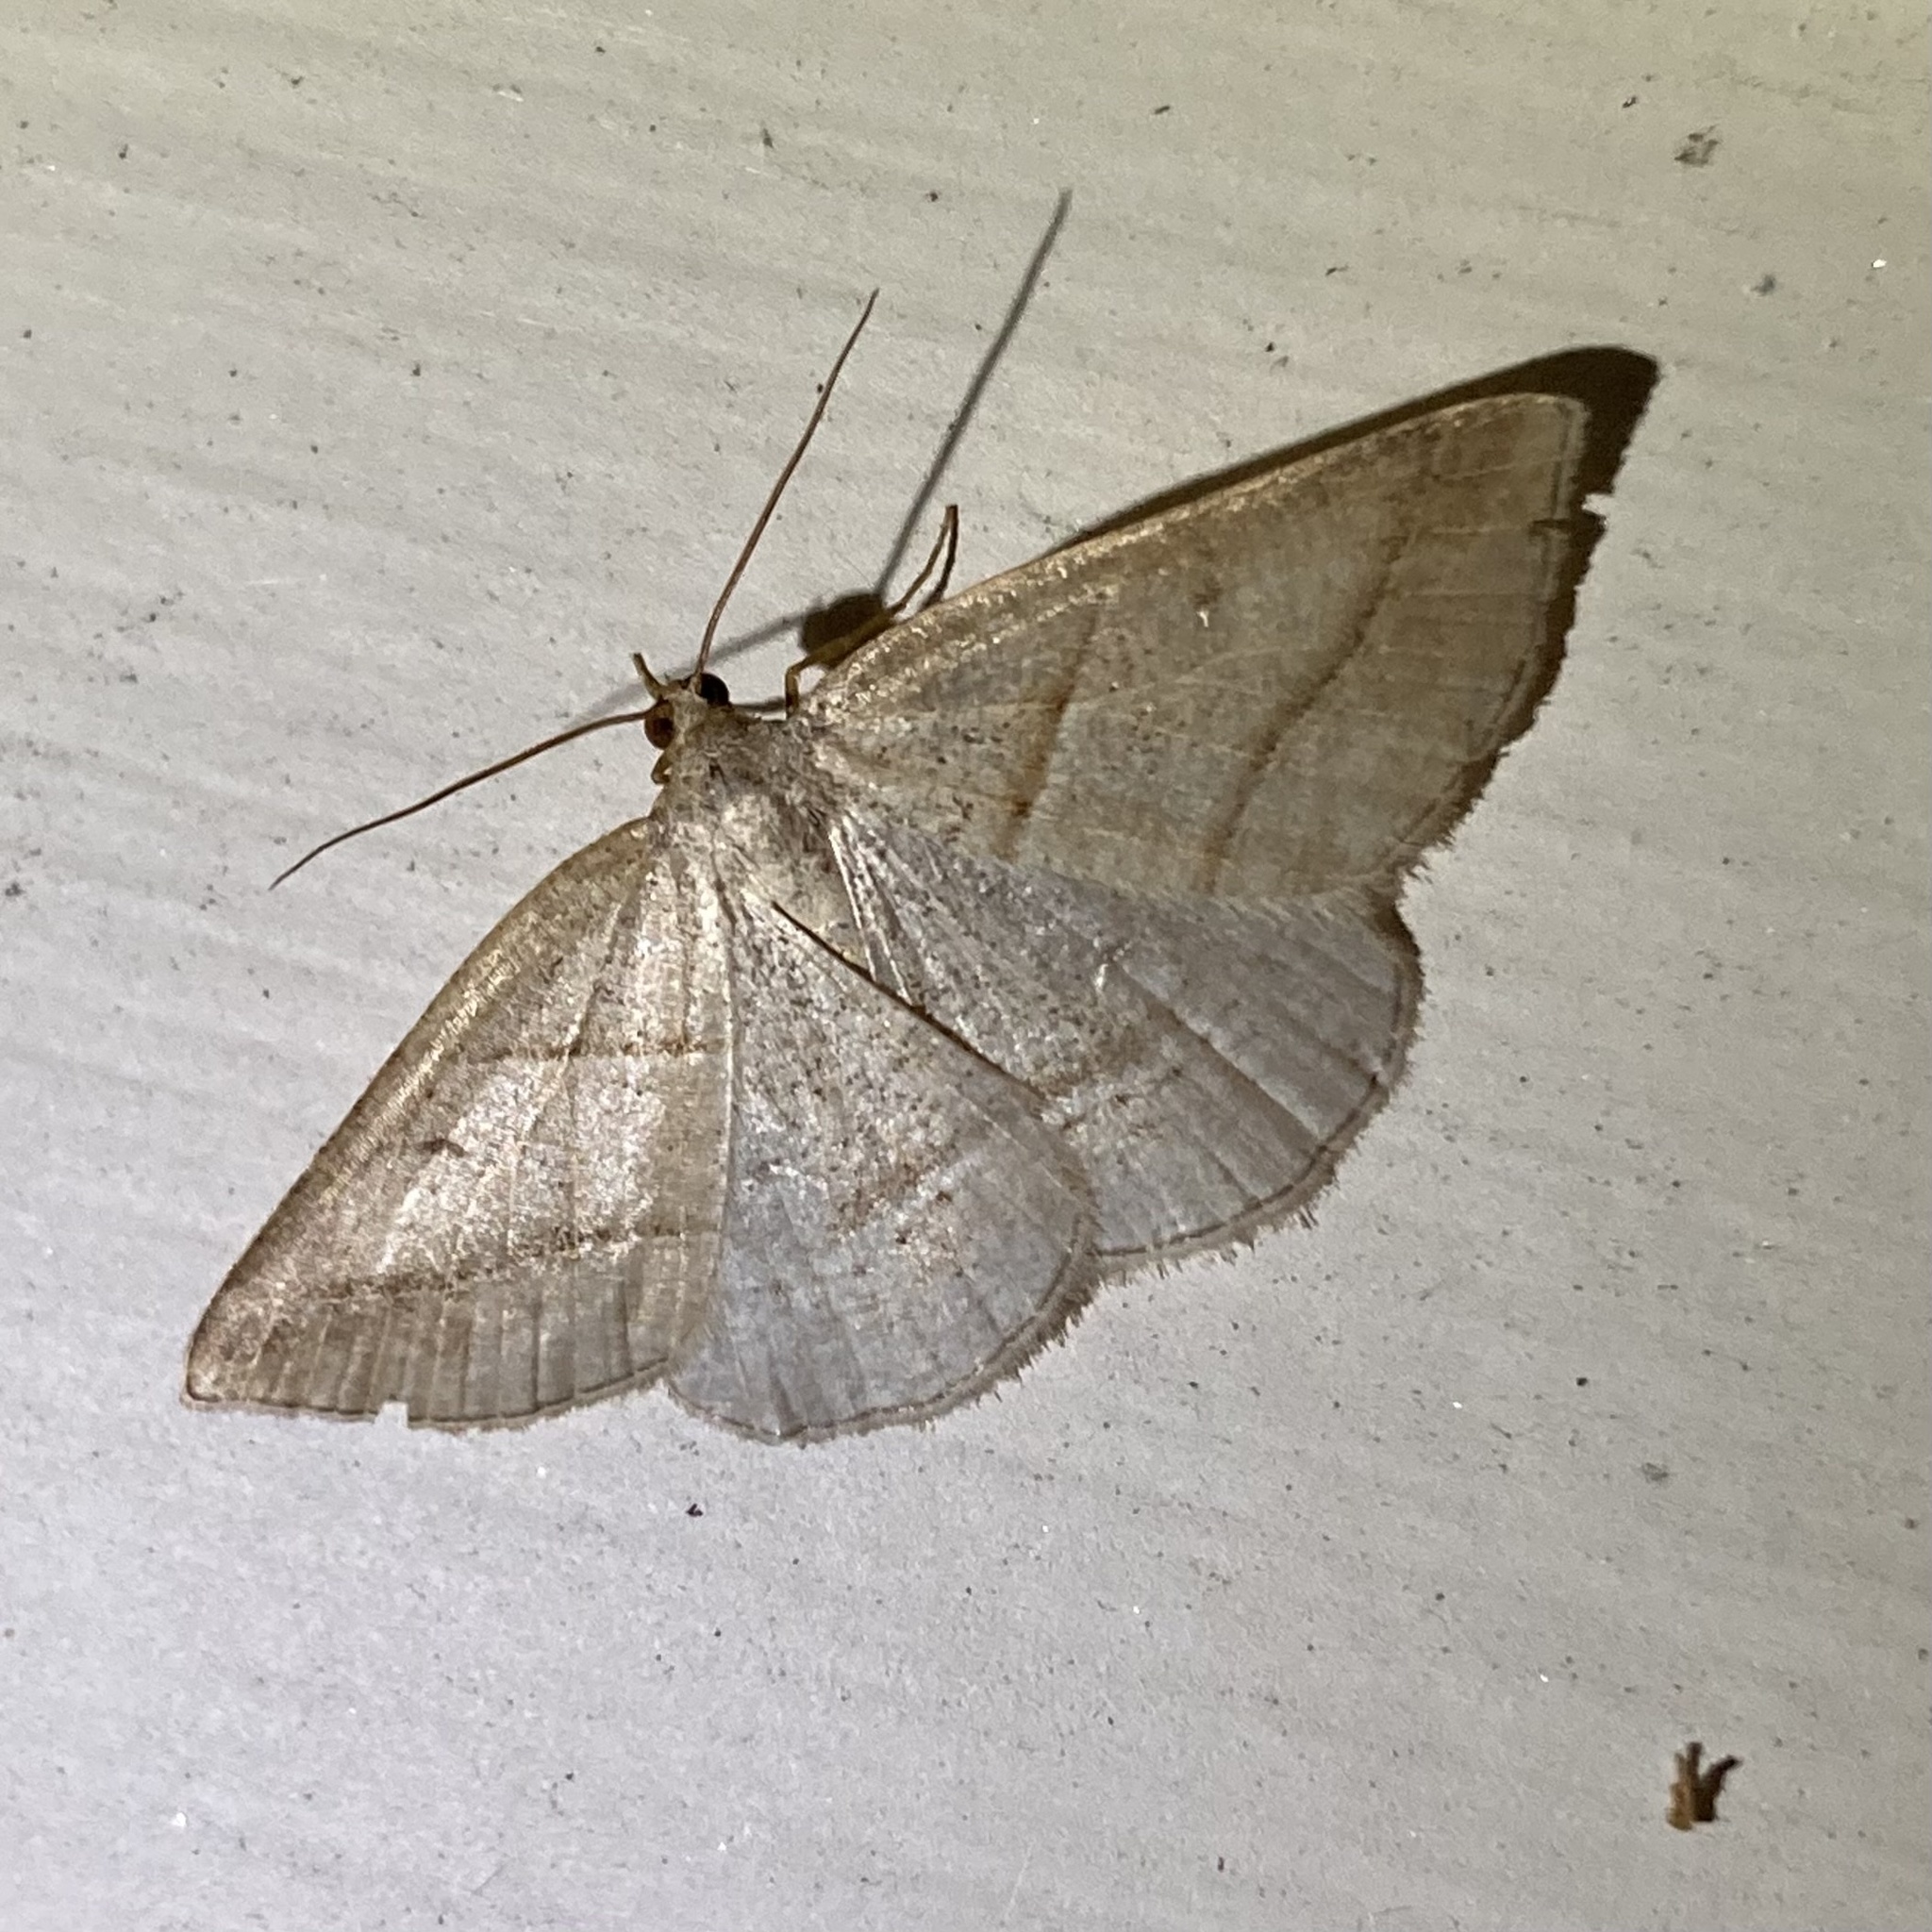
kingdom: Animalia
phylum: Arthropoda
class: Insecta
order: Lepidoptera
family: Pterophoridae
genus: Pterophorus
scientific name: Pterophorus Petrophora subaequaria
